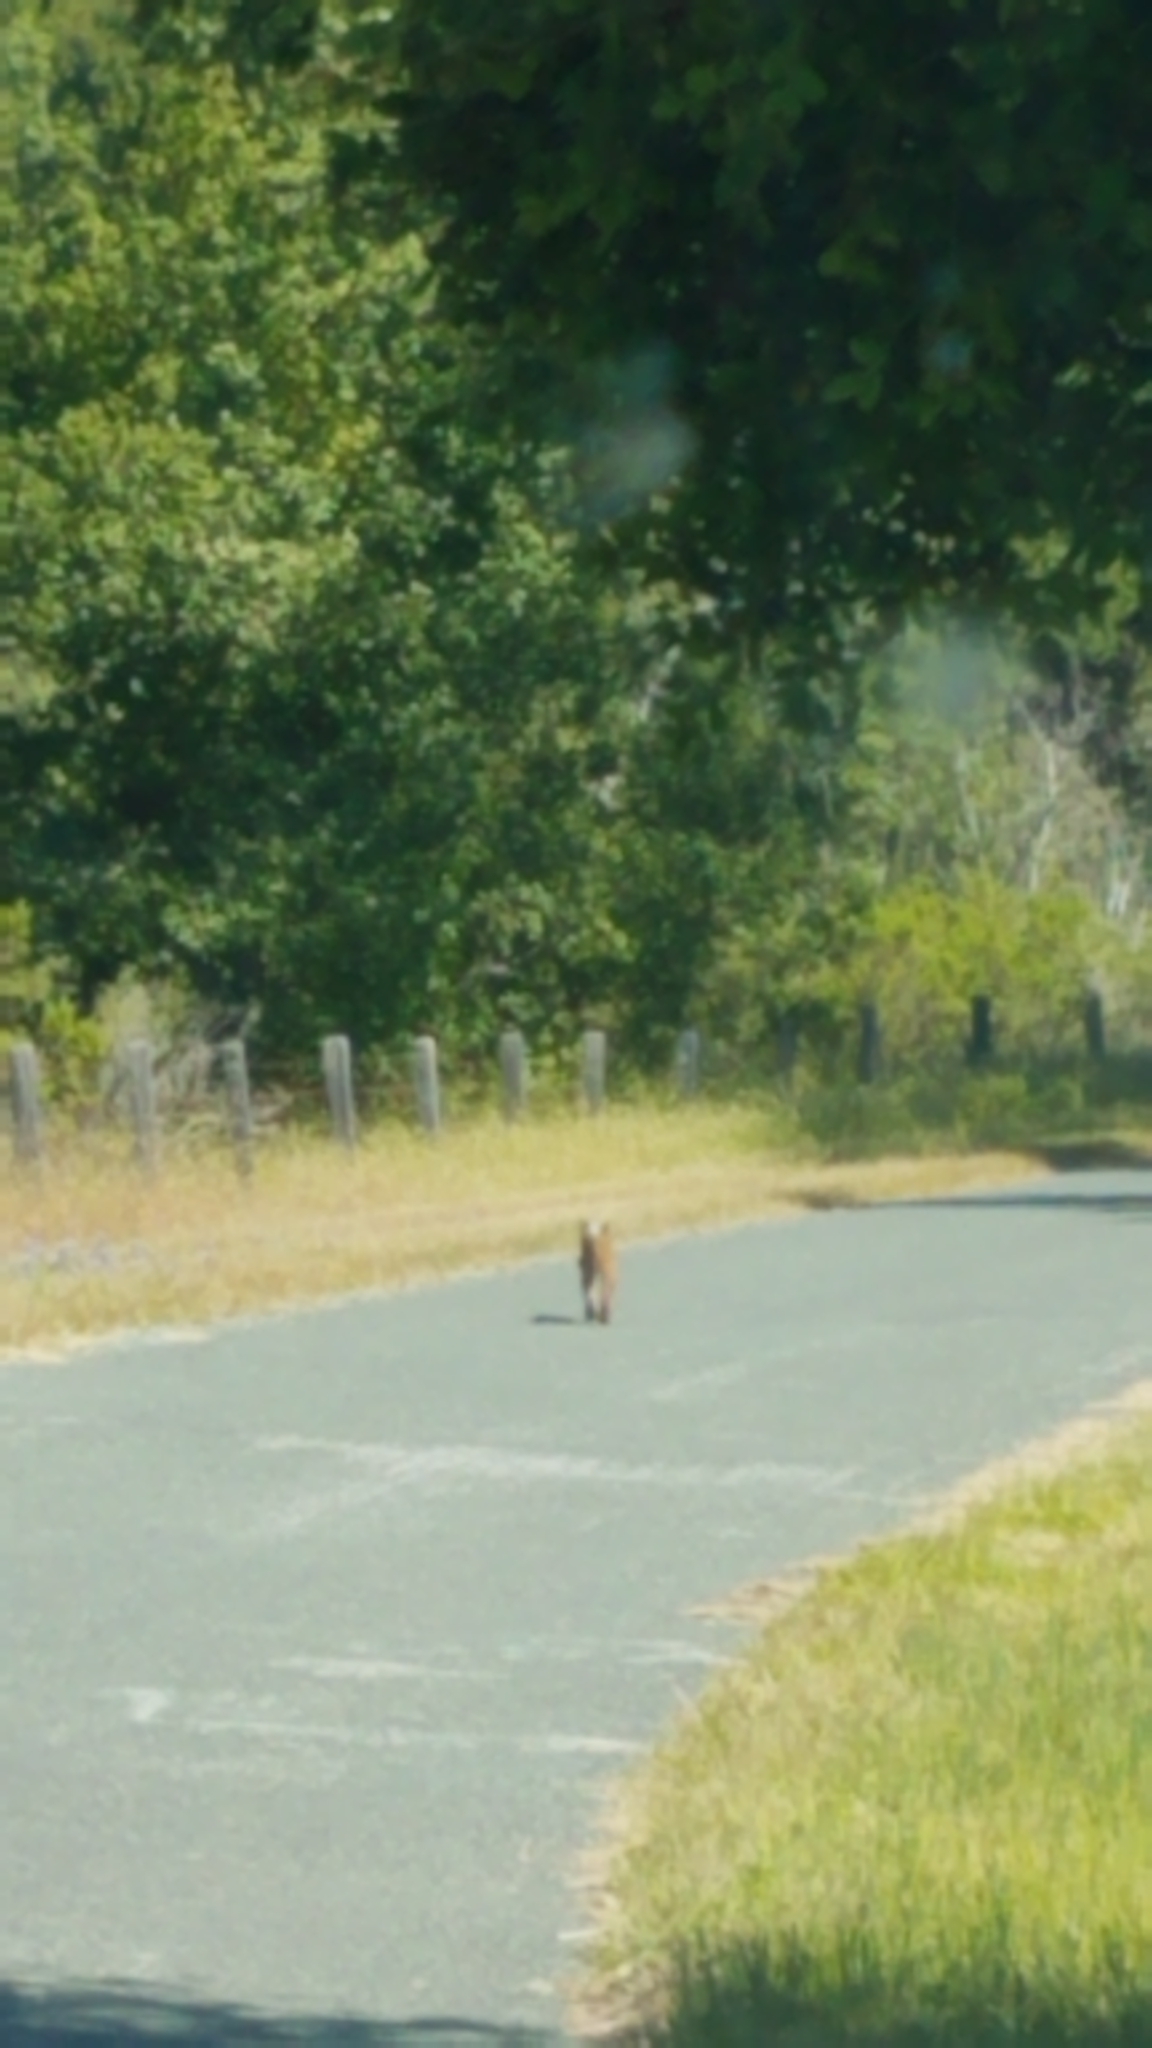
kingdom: Animalia
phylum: Chordata
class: Mammalia
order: Carnivora
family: Felidae
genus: Lynx
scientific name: Lynx rufus
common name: Bobcat
